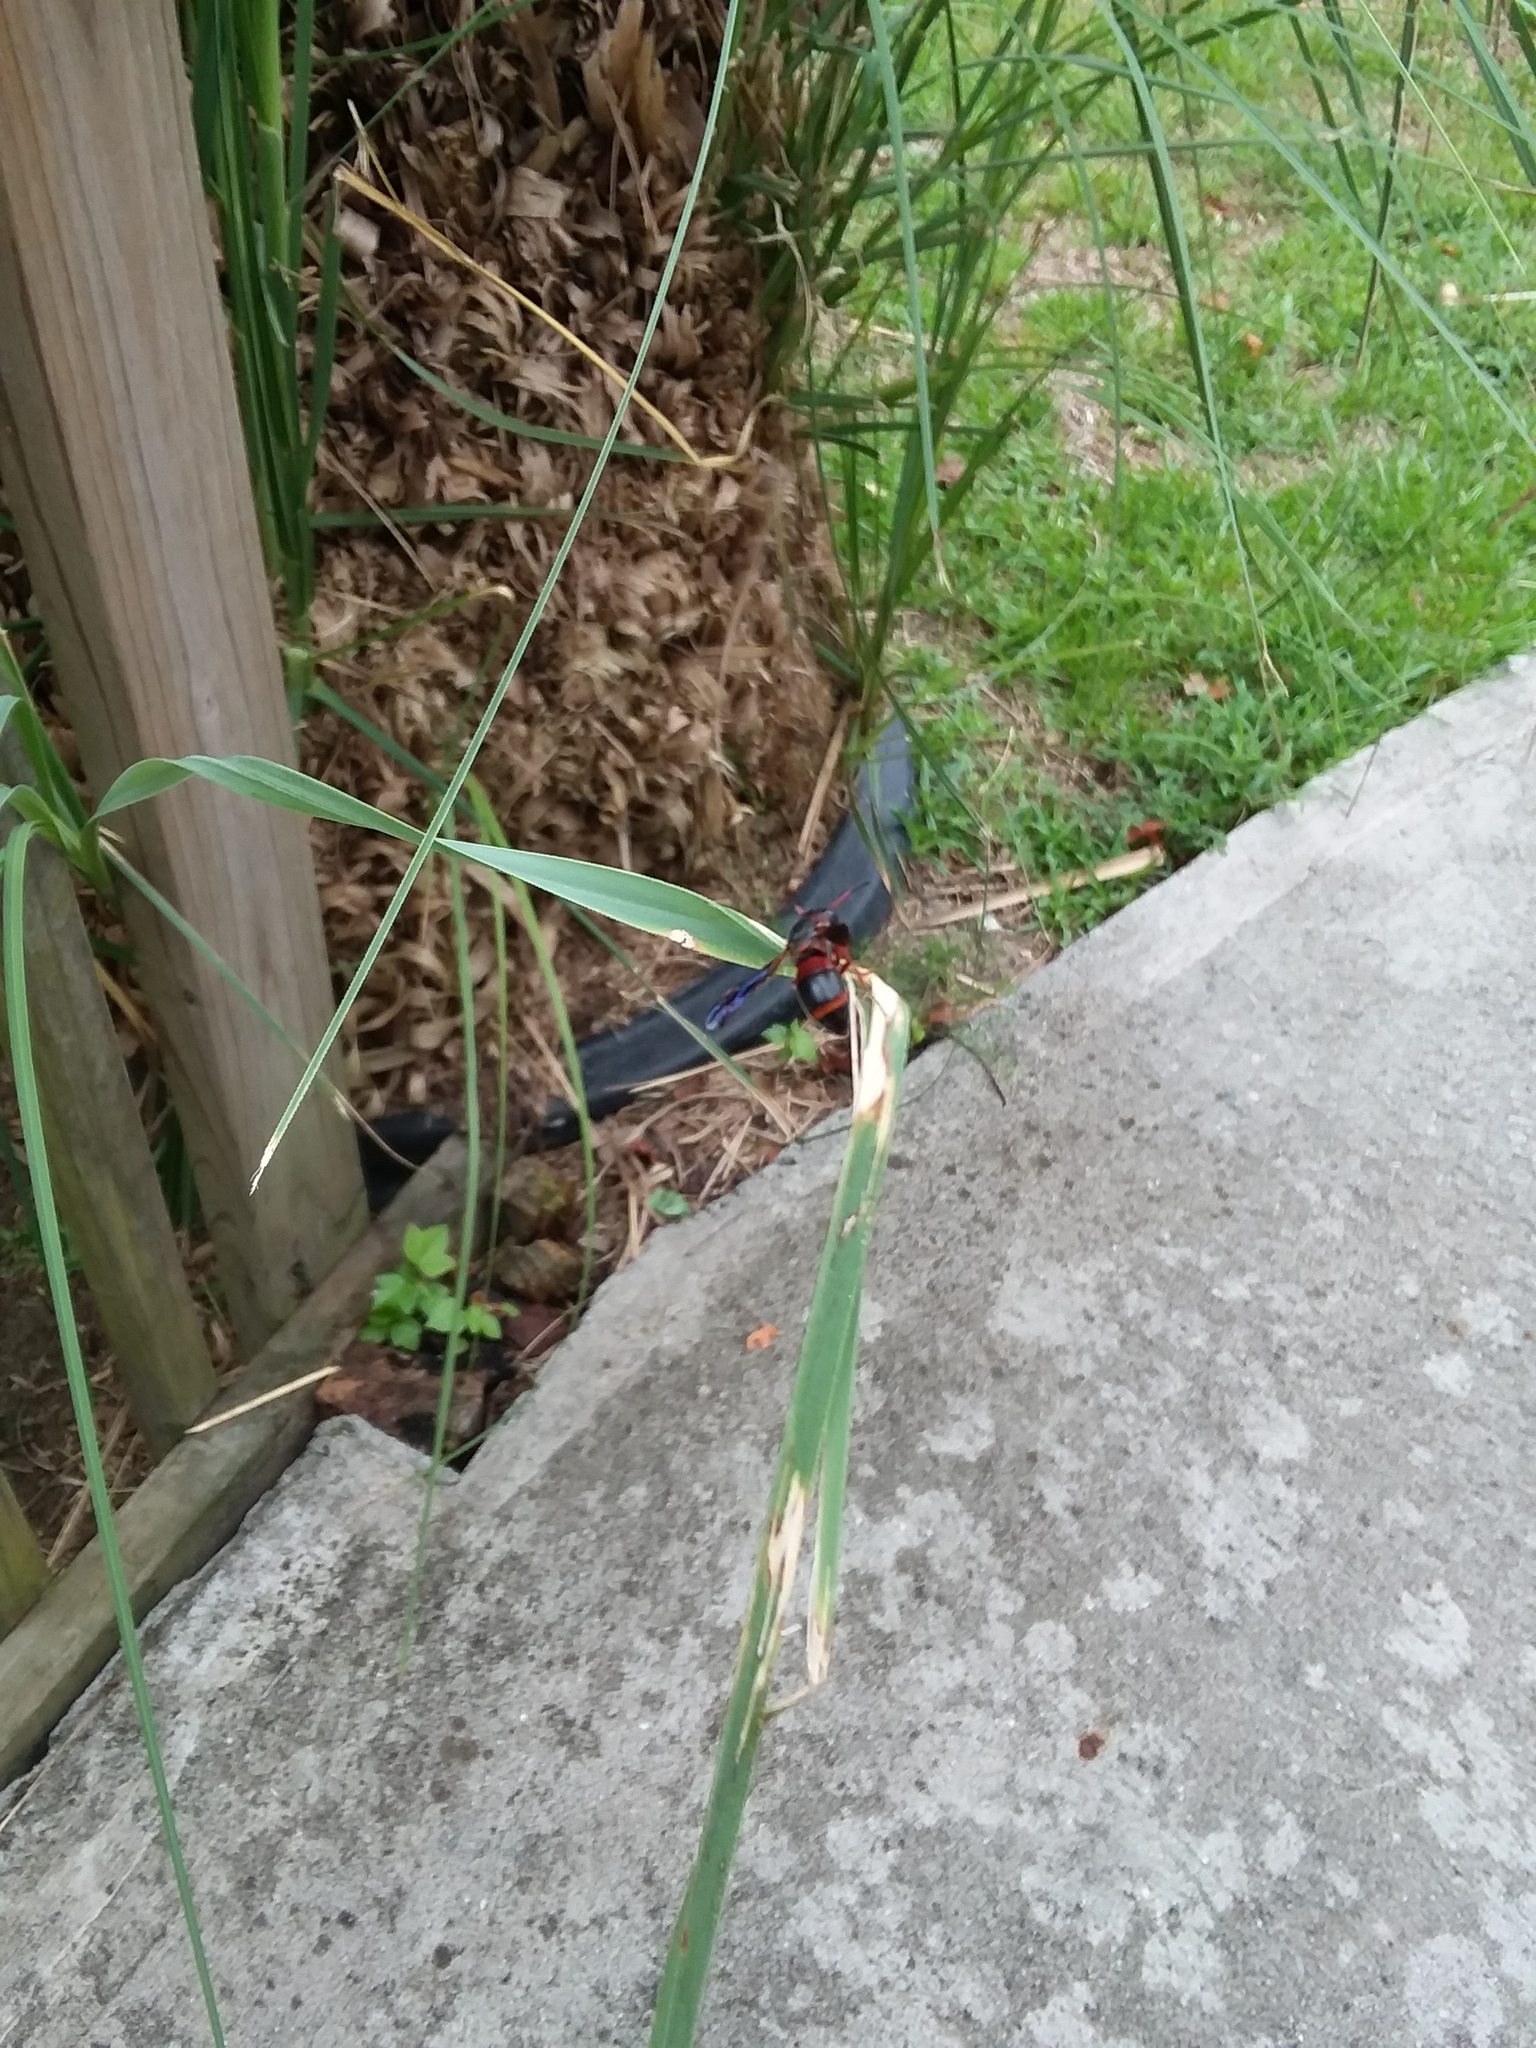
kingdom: Animalia
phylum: Arthropoda
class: Insecta
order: Hymenoptera
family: Eumenidae
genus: Pachodynerus
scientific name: Pachodynerus erynnis
